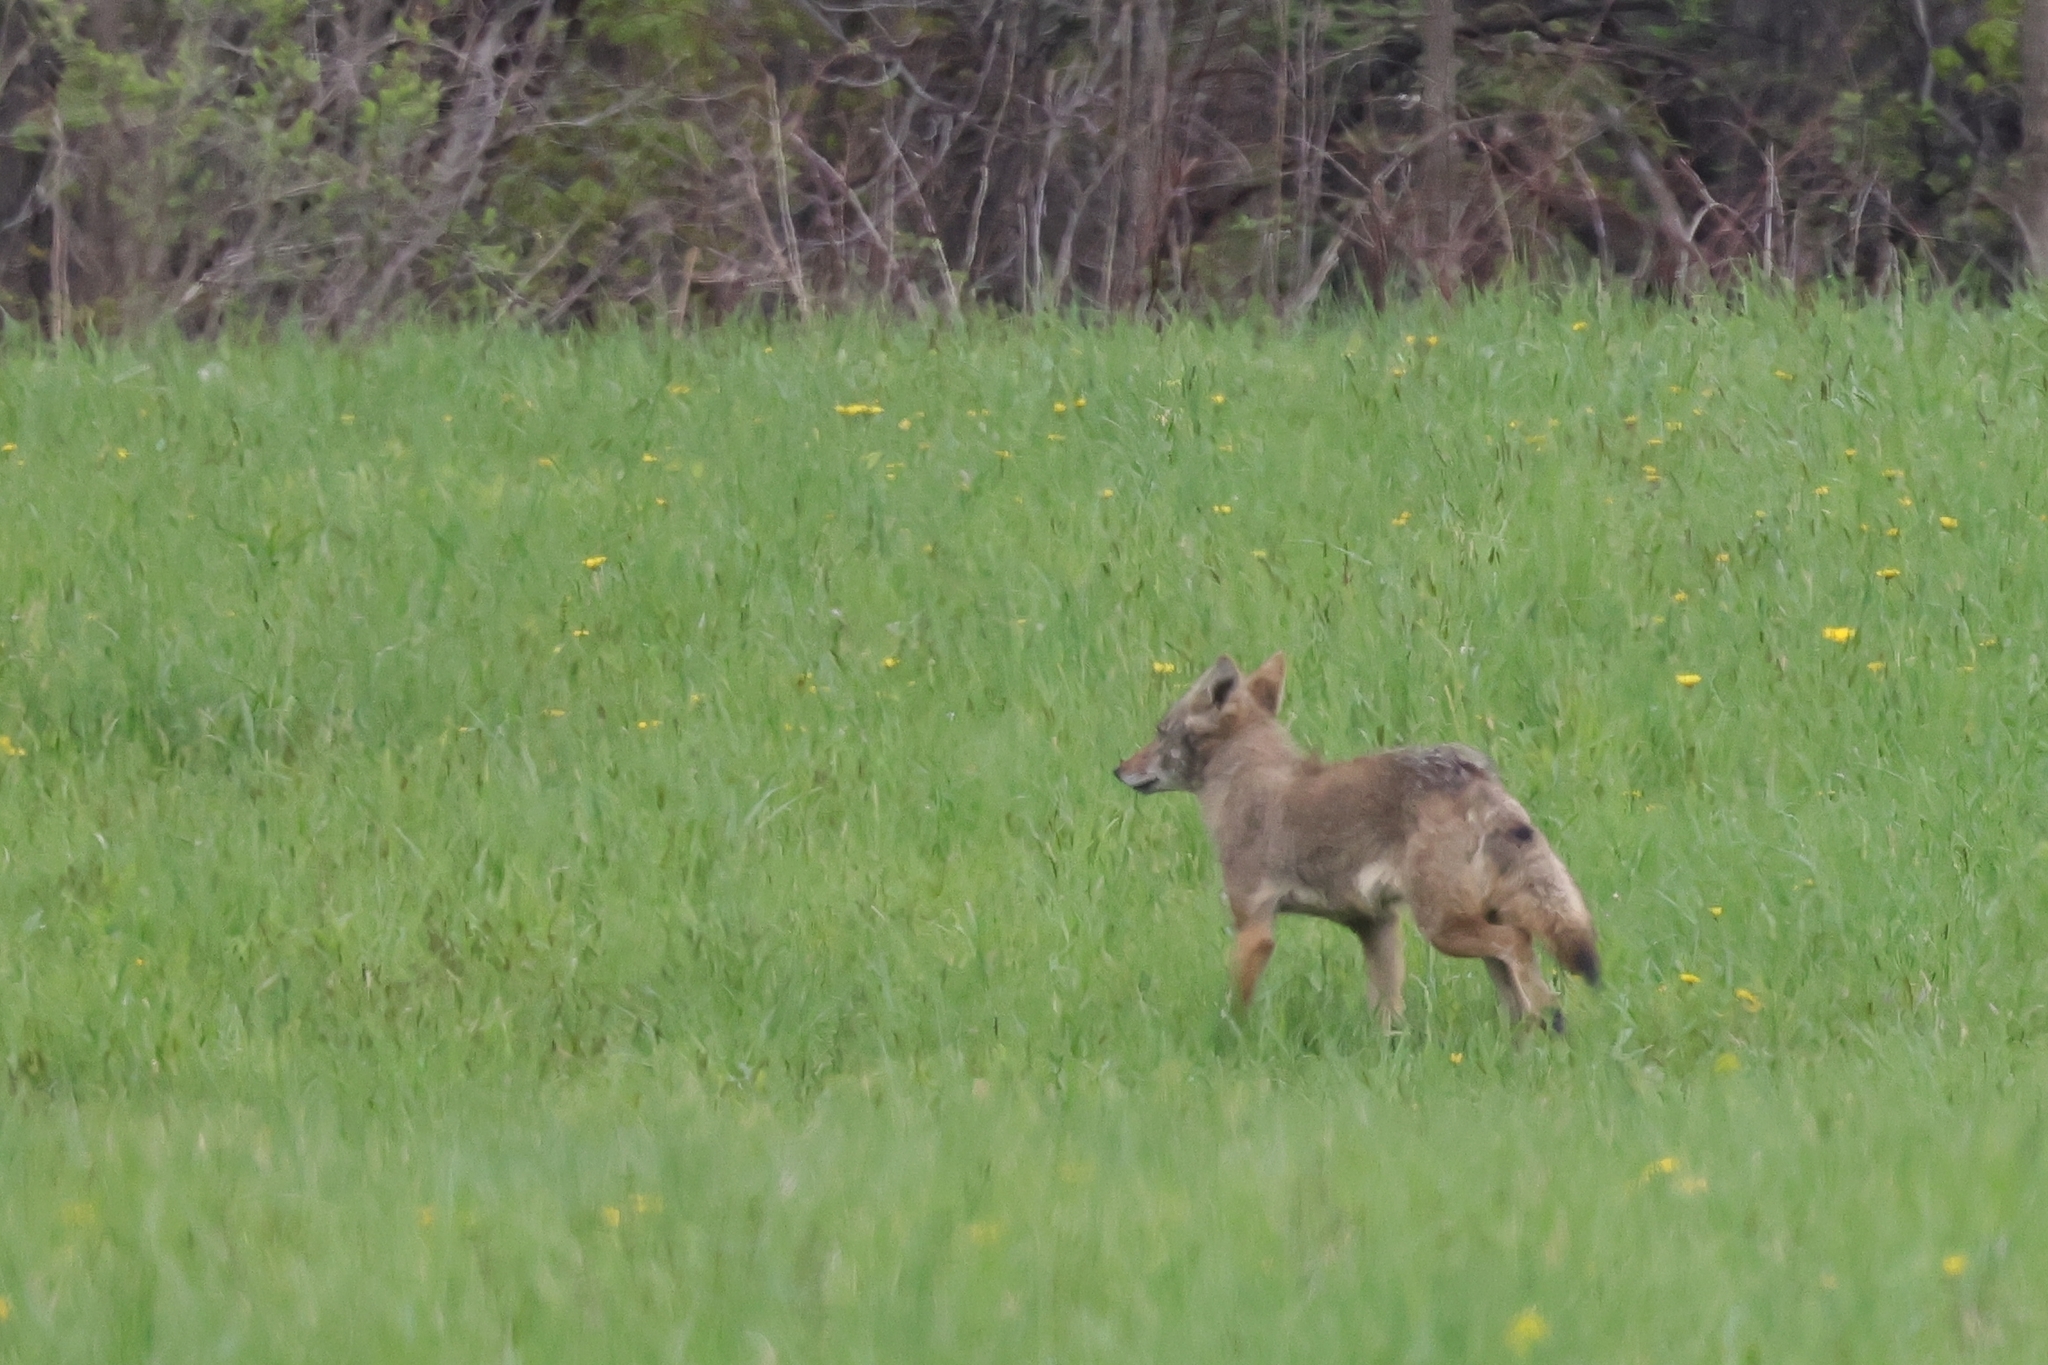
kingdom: Animalia
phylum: Chordata
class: Mammalia
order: Carnivora
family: Canidae
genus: Canis
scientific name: Canis latrans
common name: Coyote
